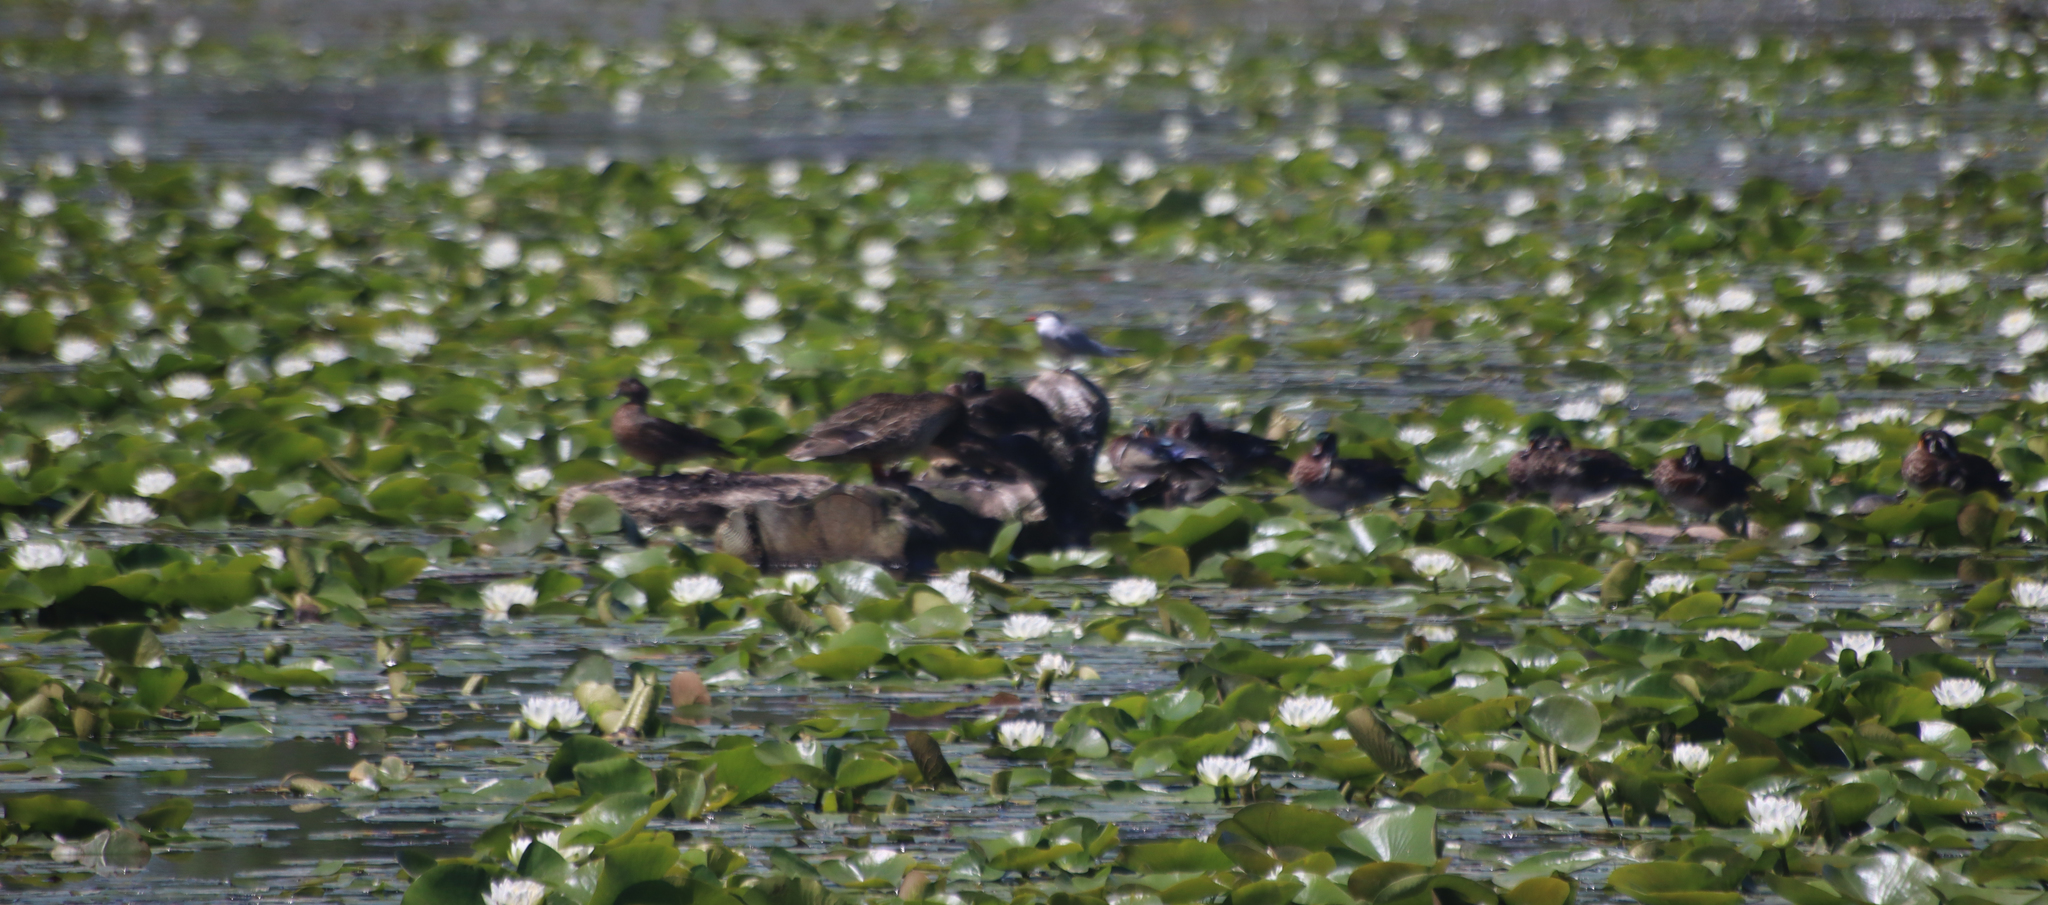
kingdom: Animalia
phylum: Chordata
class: Aves
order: Anseriformes
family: Anatidae
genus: Aix
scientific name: Aix sponsa
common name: Wood duck
